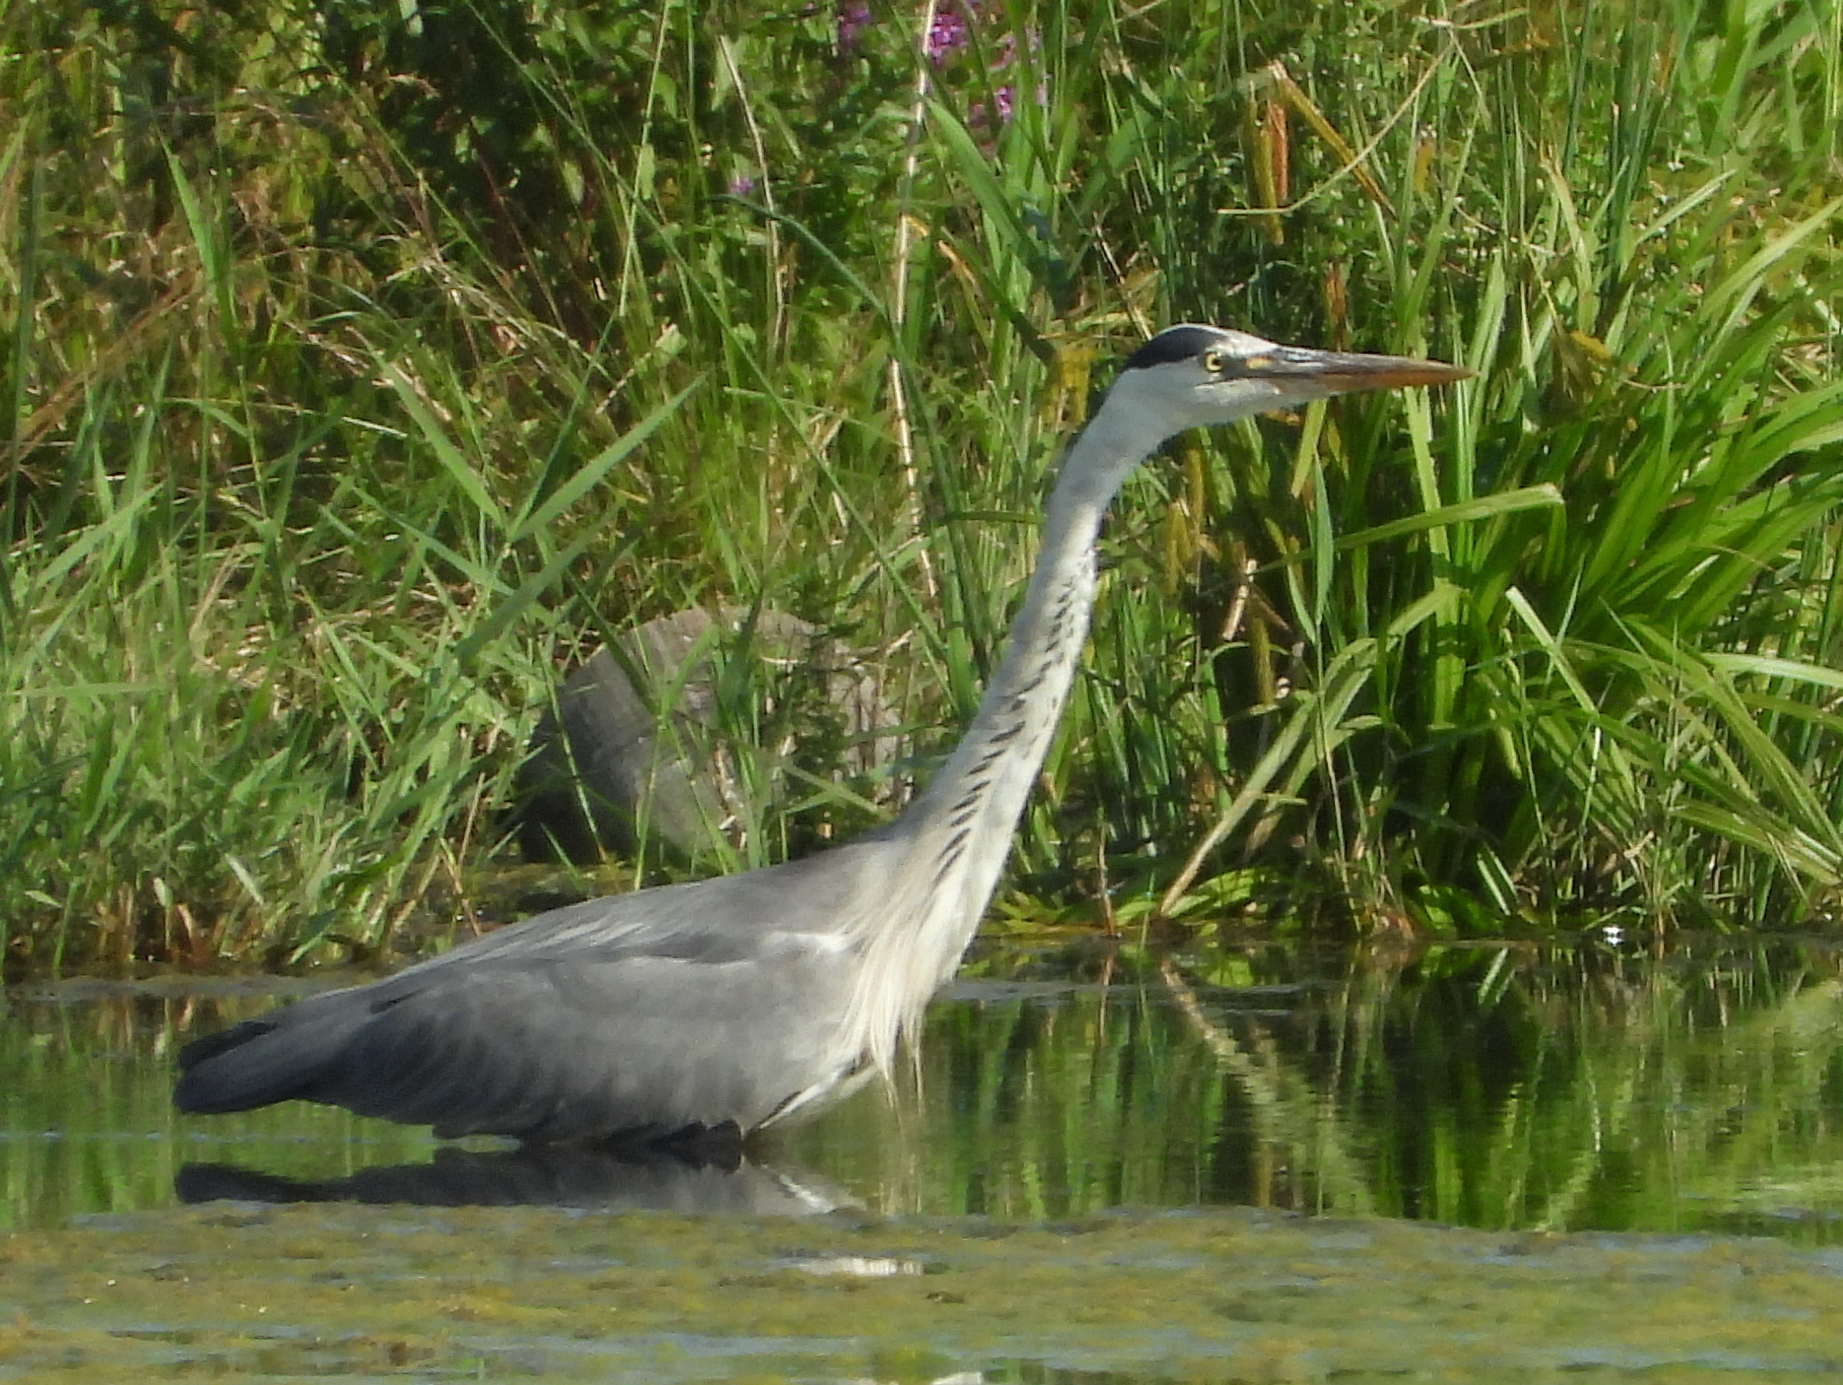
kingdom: Animalia
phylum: Chordata
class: Aves
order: Pelecaniformes
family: Ardeidae
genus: Ardea
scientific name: Ardea cinerea
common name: Grey heron
